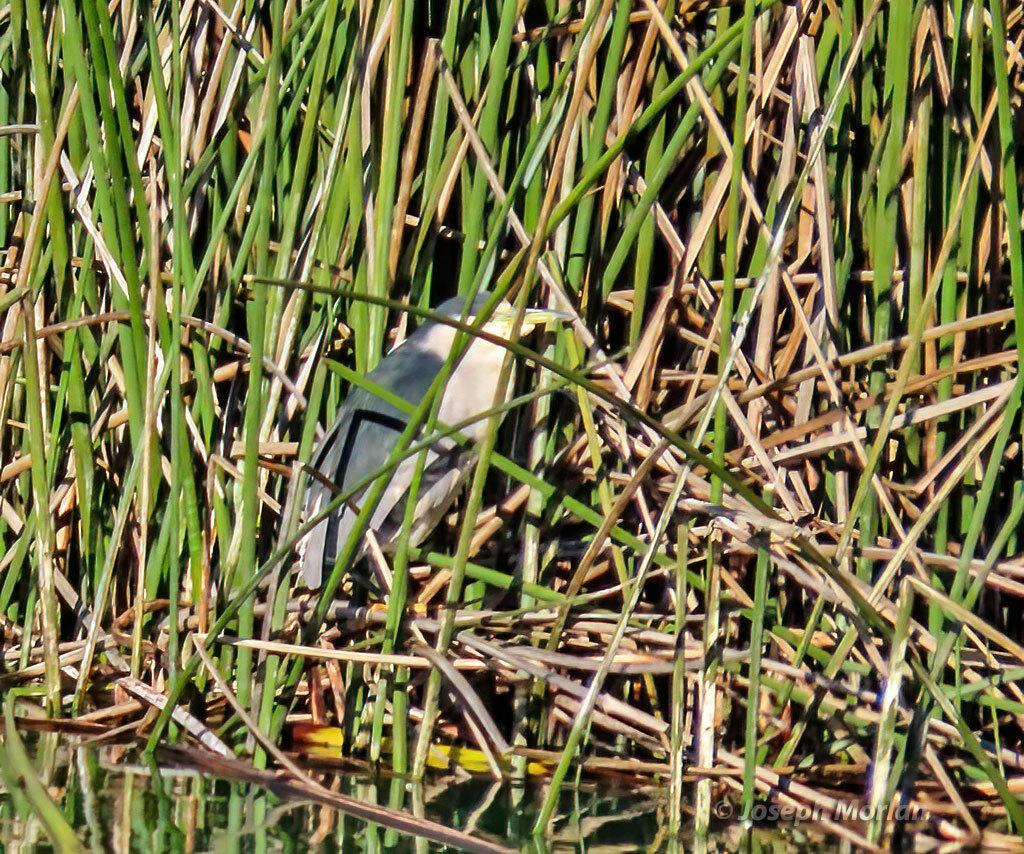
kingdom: Animalia
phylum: Chordata
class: Aves
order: Pelecaniformes
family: Ardeidae
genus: Nycticorax
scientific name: Nycticorax nycticorax
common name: Black-crowned night heron
